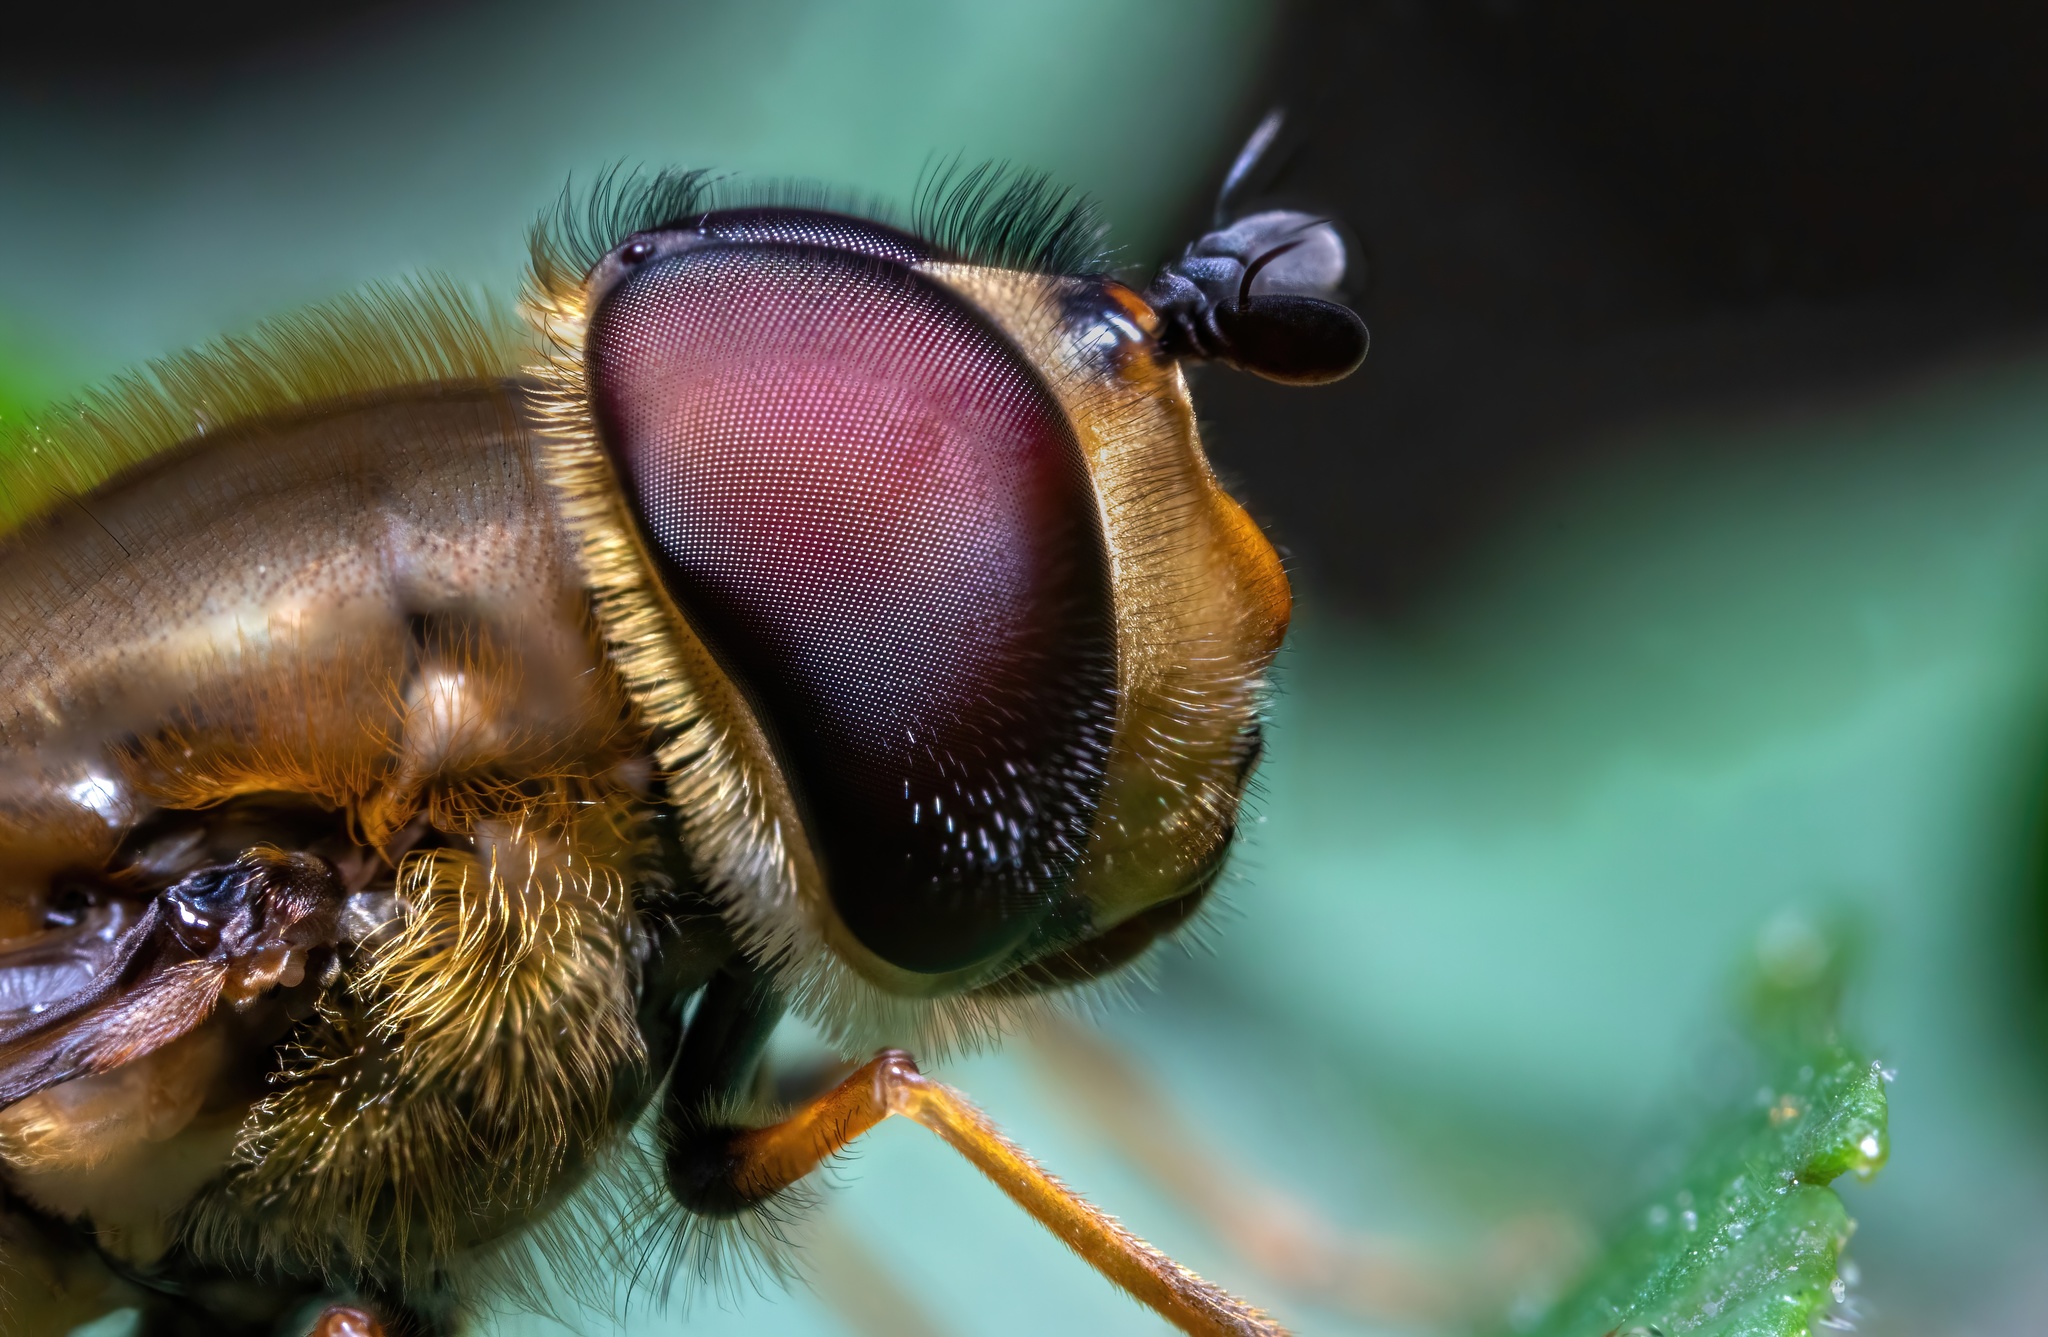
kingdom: Animalia
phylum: Arthropoda
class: Insecta
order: Diptera
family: Syrphidae
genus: Syrphus
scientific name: Syrphus torvus
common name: Hairy-eyed flower fly
